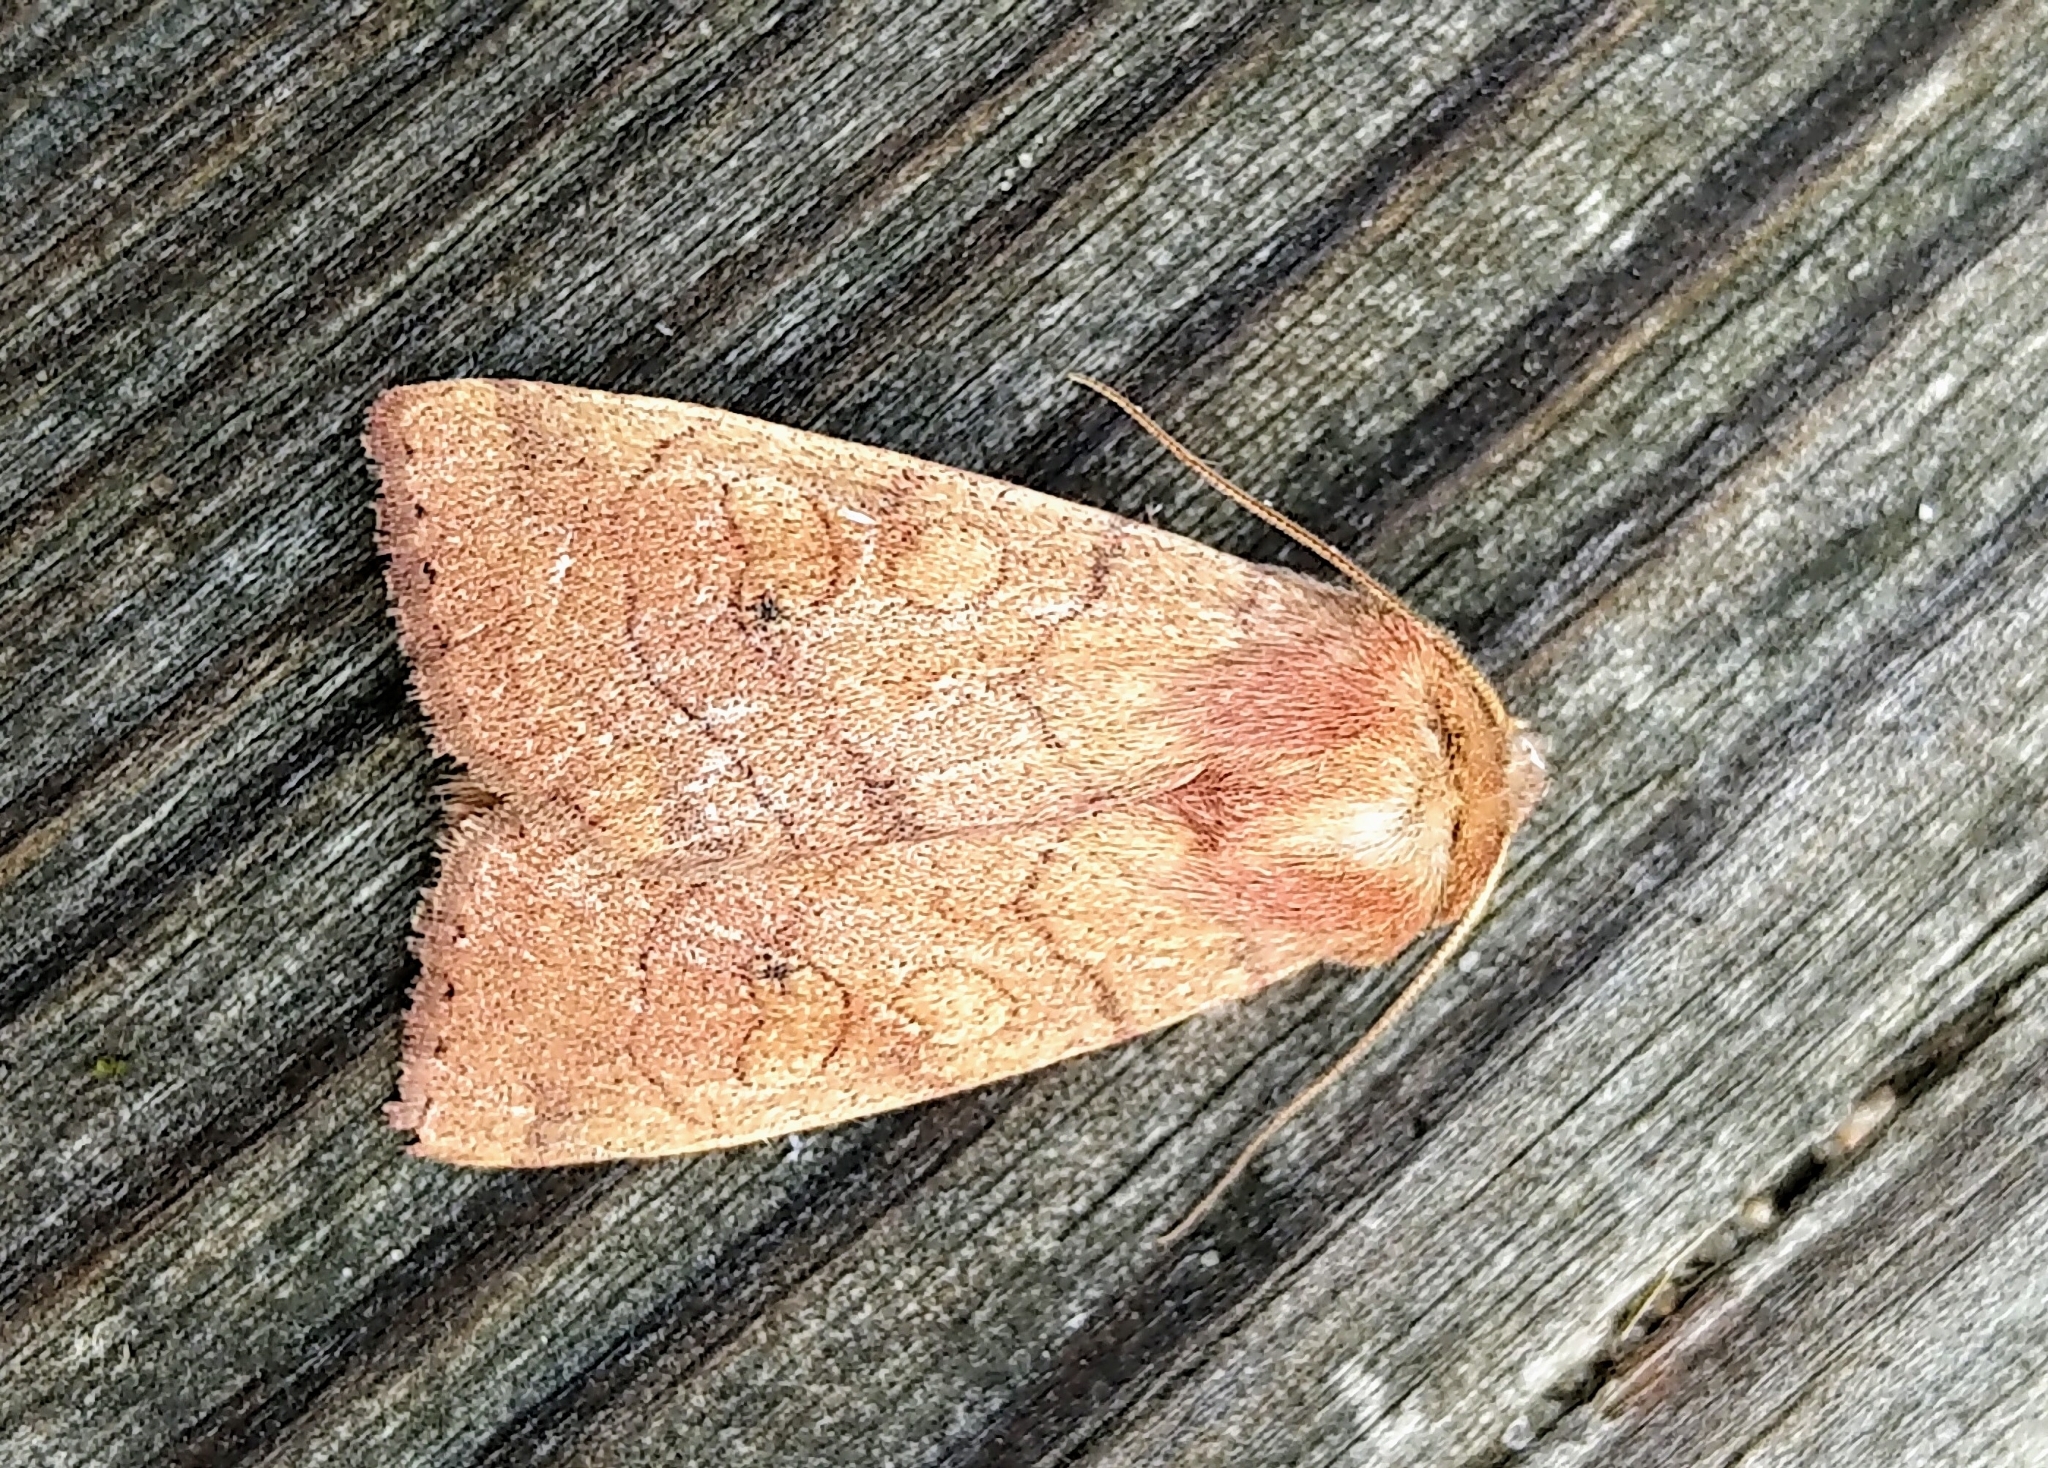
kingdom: Animalia
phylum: Arthropoda
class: Insecta
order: Lepidoptera
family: Noctuidae
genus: Enargia
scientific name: Enargia infumata
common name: Smoked sallow
